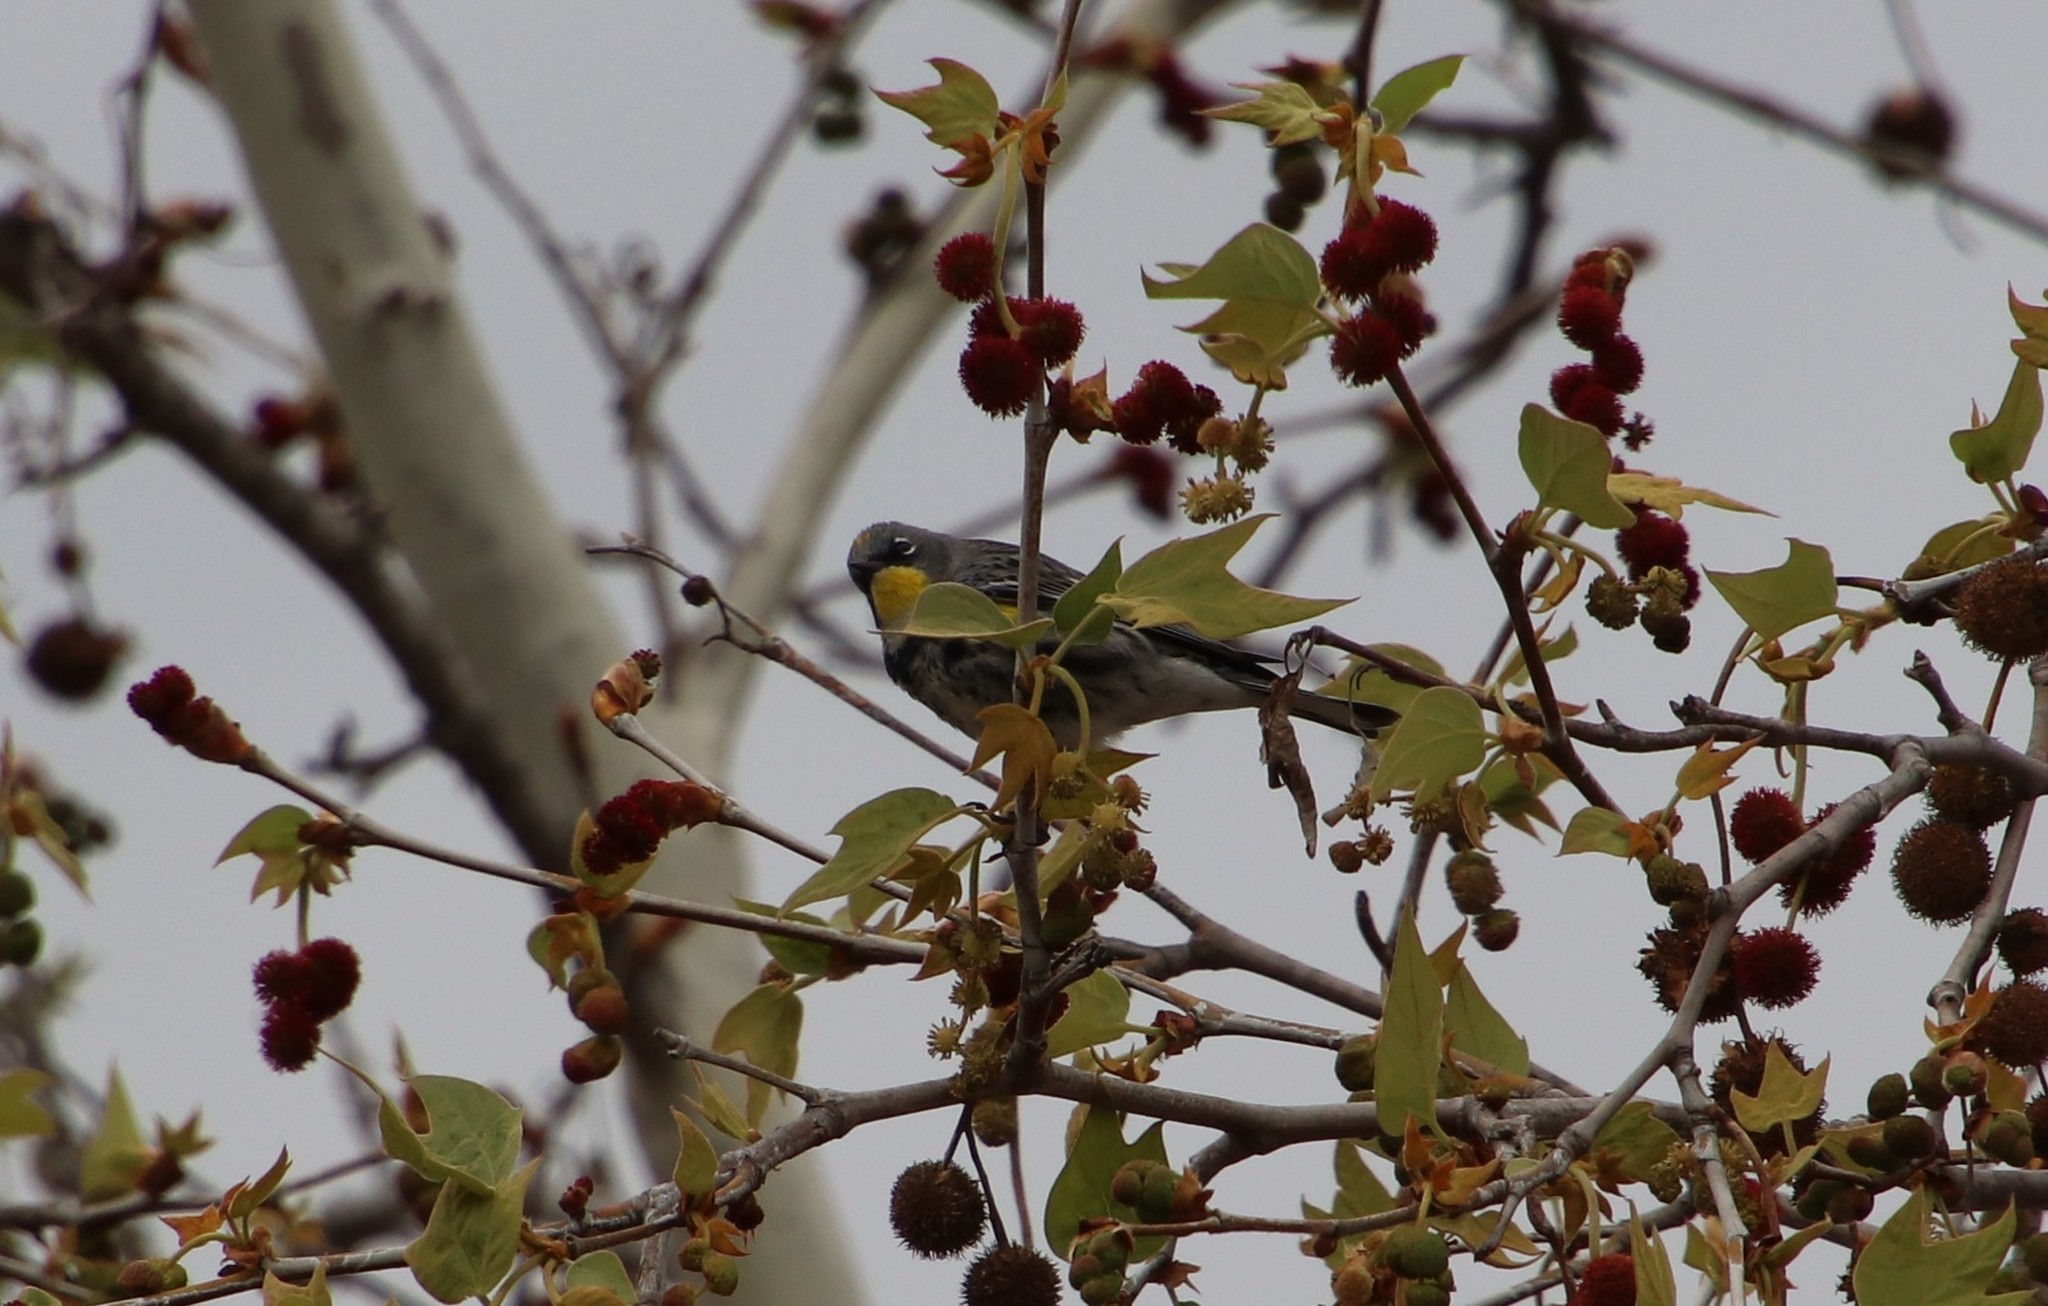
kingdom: Animalia
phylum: Chordata
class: Aves
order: Passeriformes
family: Parulidae
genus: Setophaga
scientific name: Setophaga auduboni
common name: Audubon's warbler
